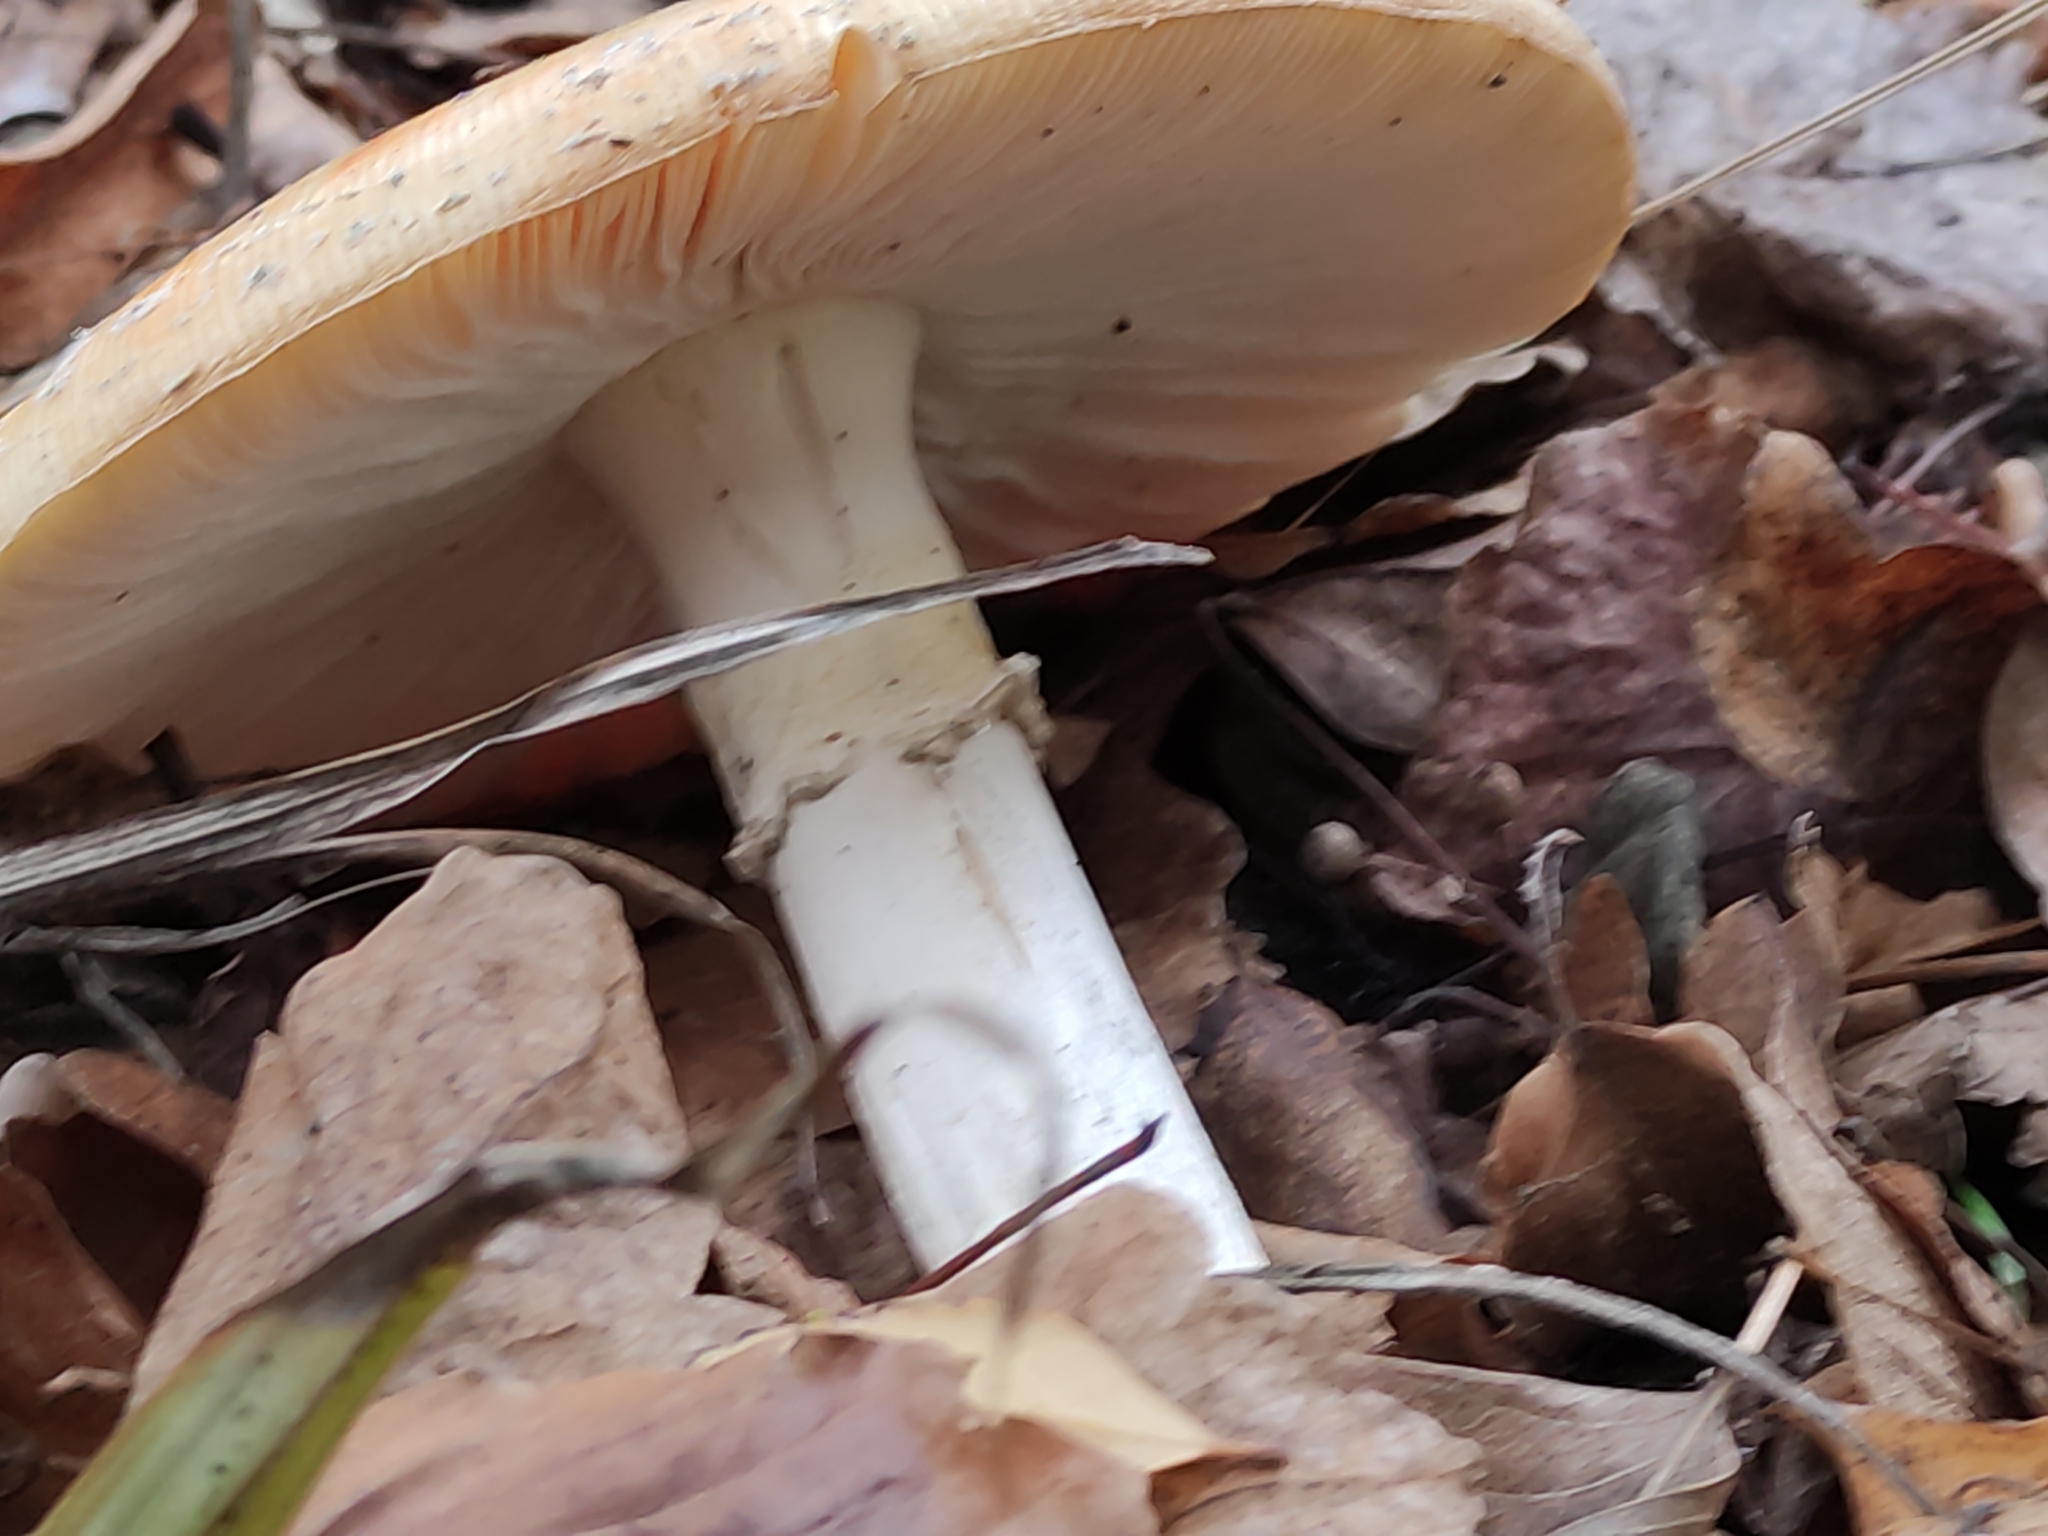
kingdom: Fungi
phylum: Basidiomycota
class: Agaricomycetes
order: Agaricales
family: Amanitaceae
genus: Amanita
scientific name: Amanita muscaria
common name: Fly agaric
